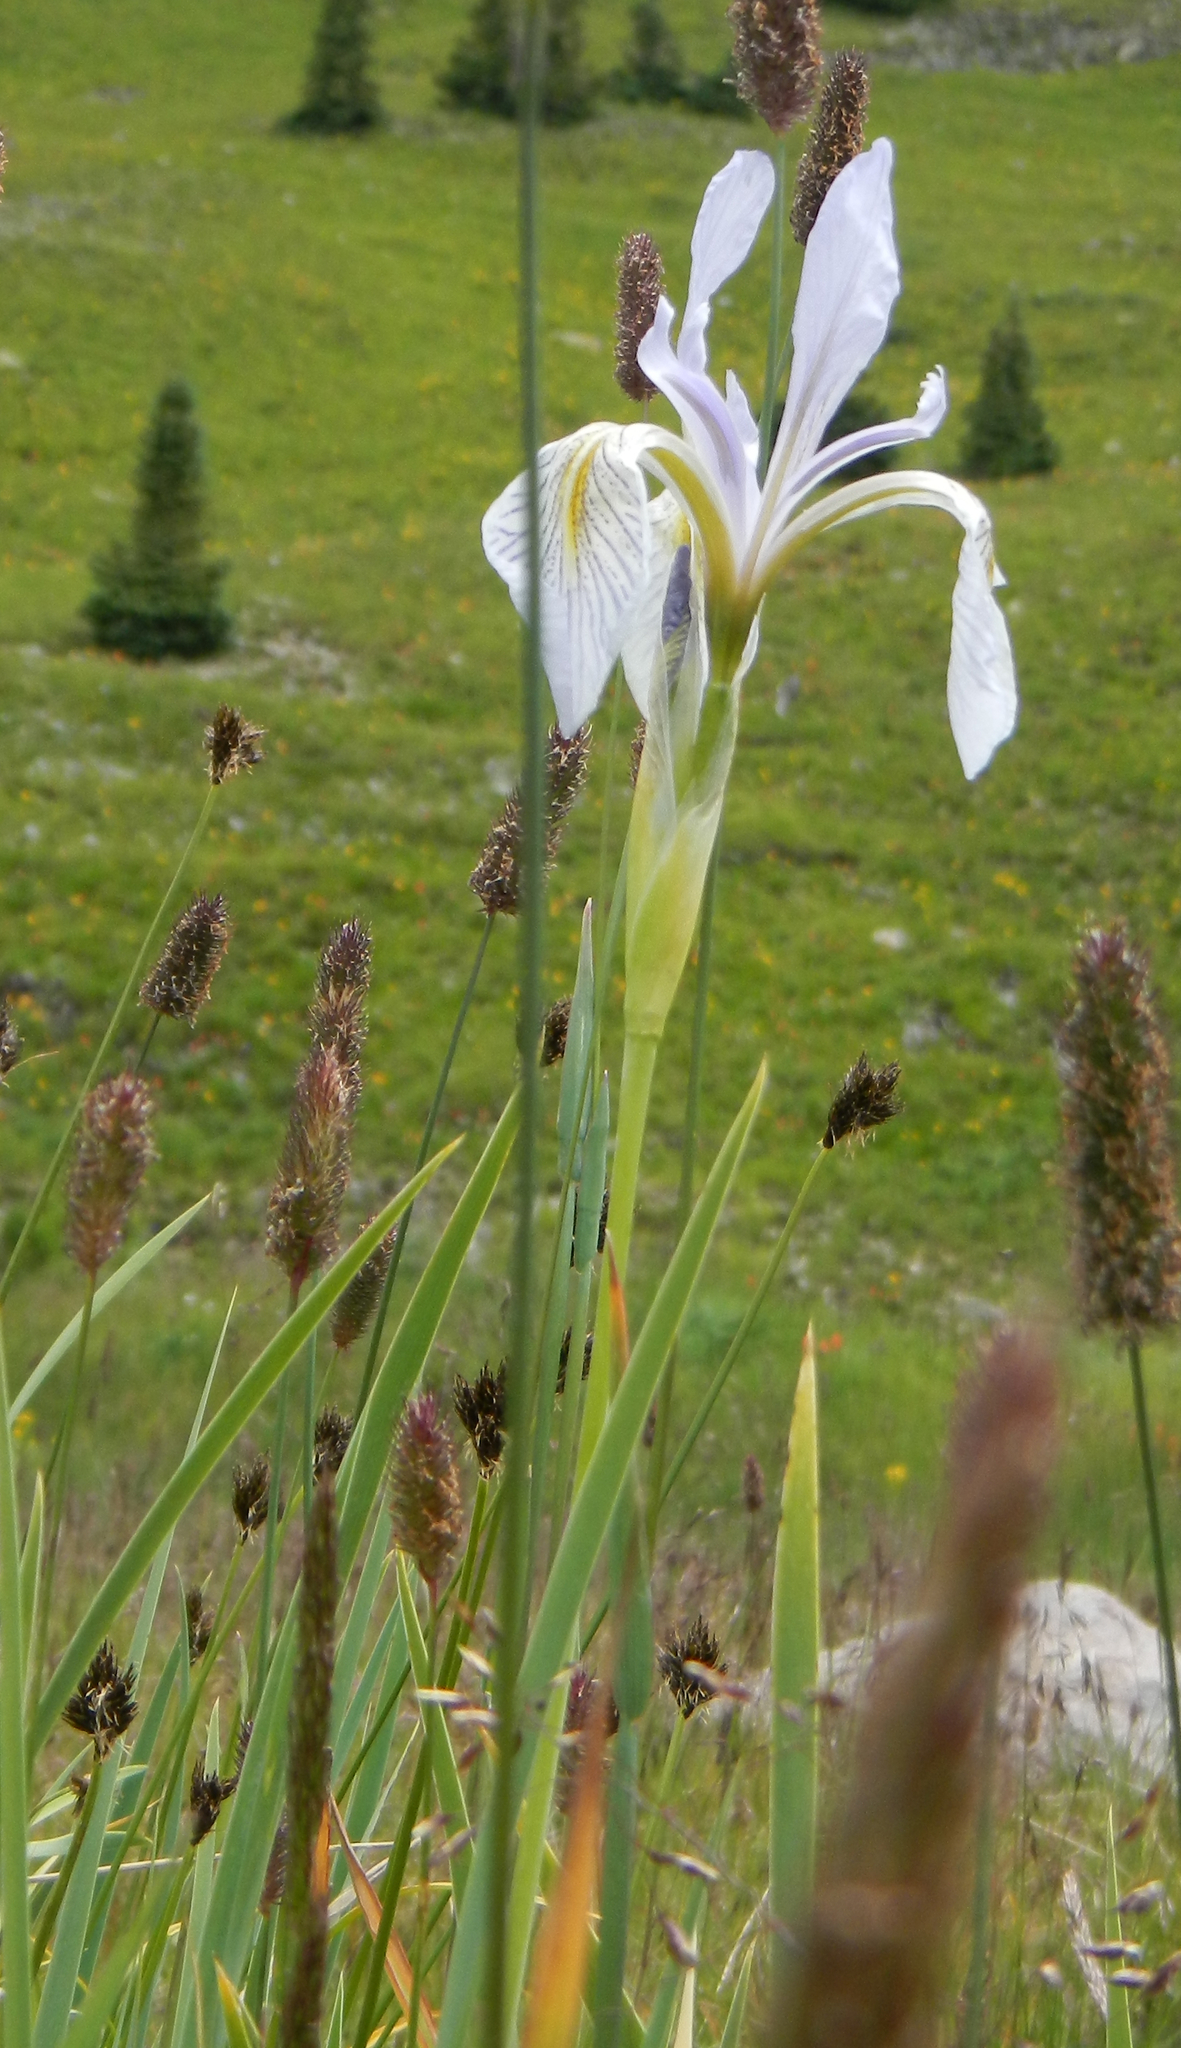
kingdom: Plantae
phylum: Tracheophyta
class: Liliopsida
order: Asparagales
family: Iridaceae
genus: Iris
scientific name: Iris missouriensis
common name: Rocky mountain iris
